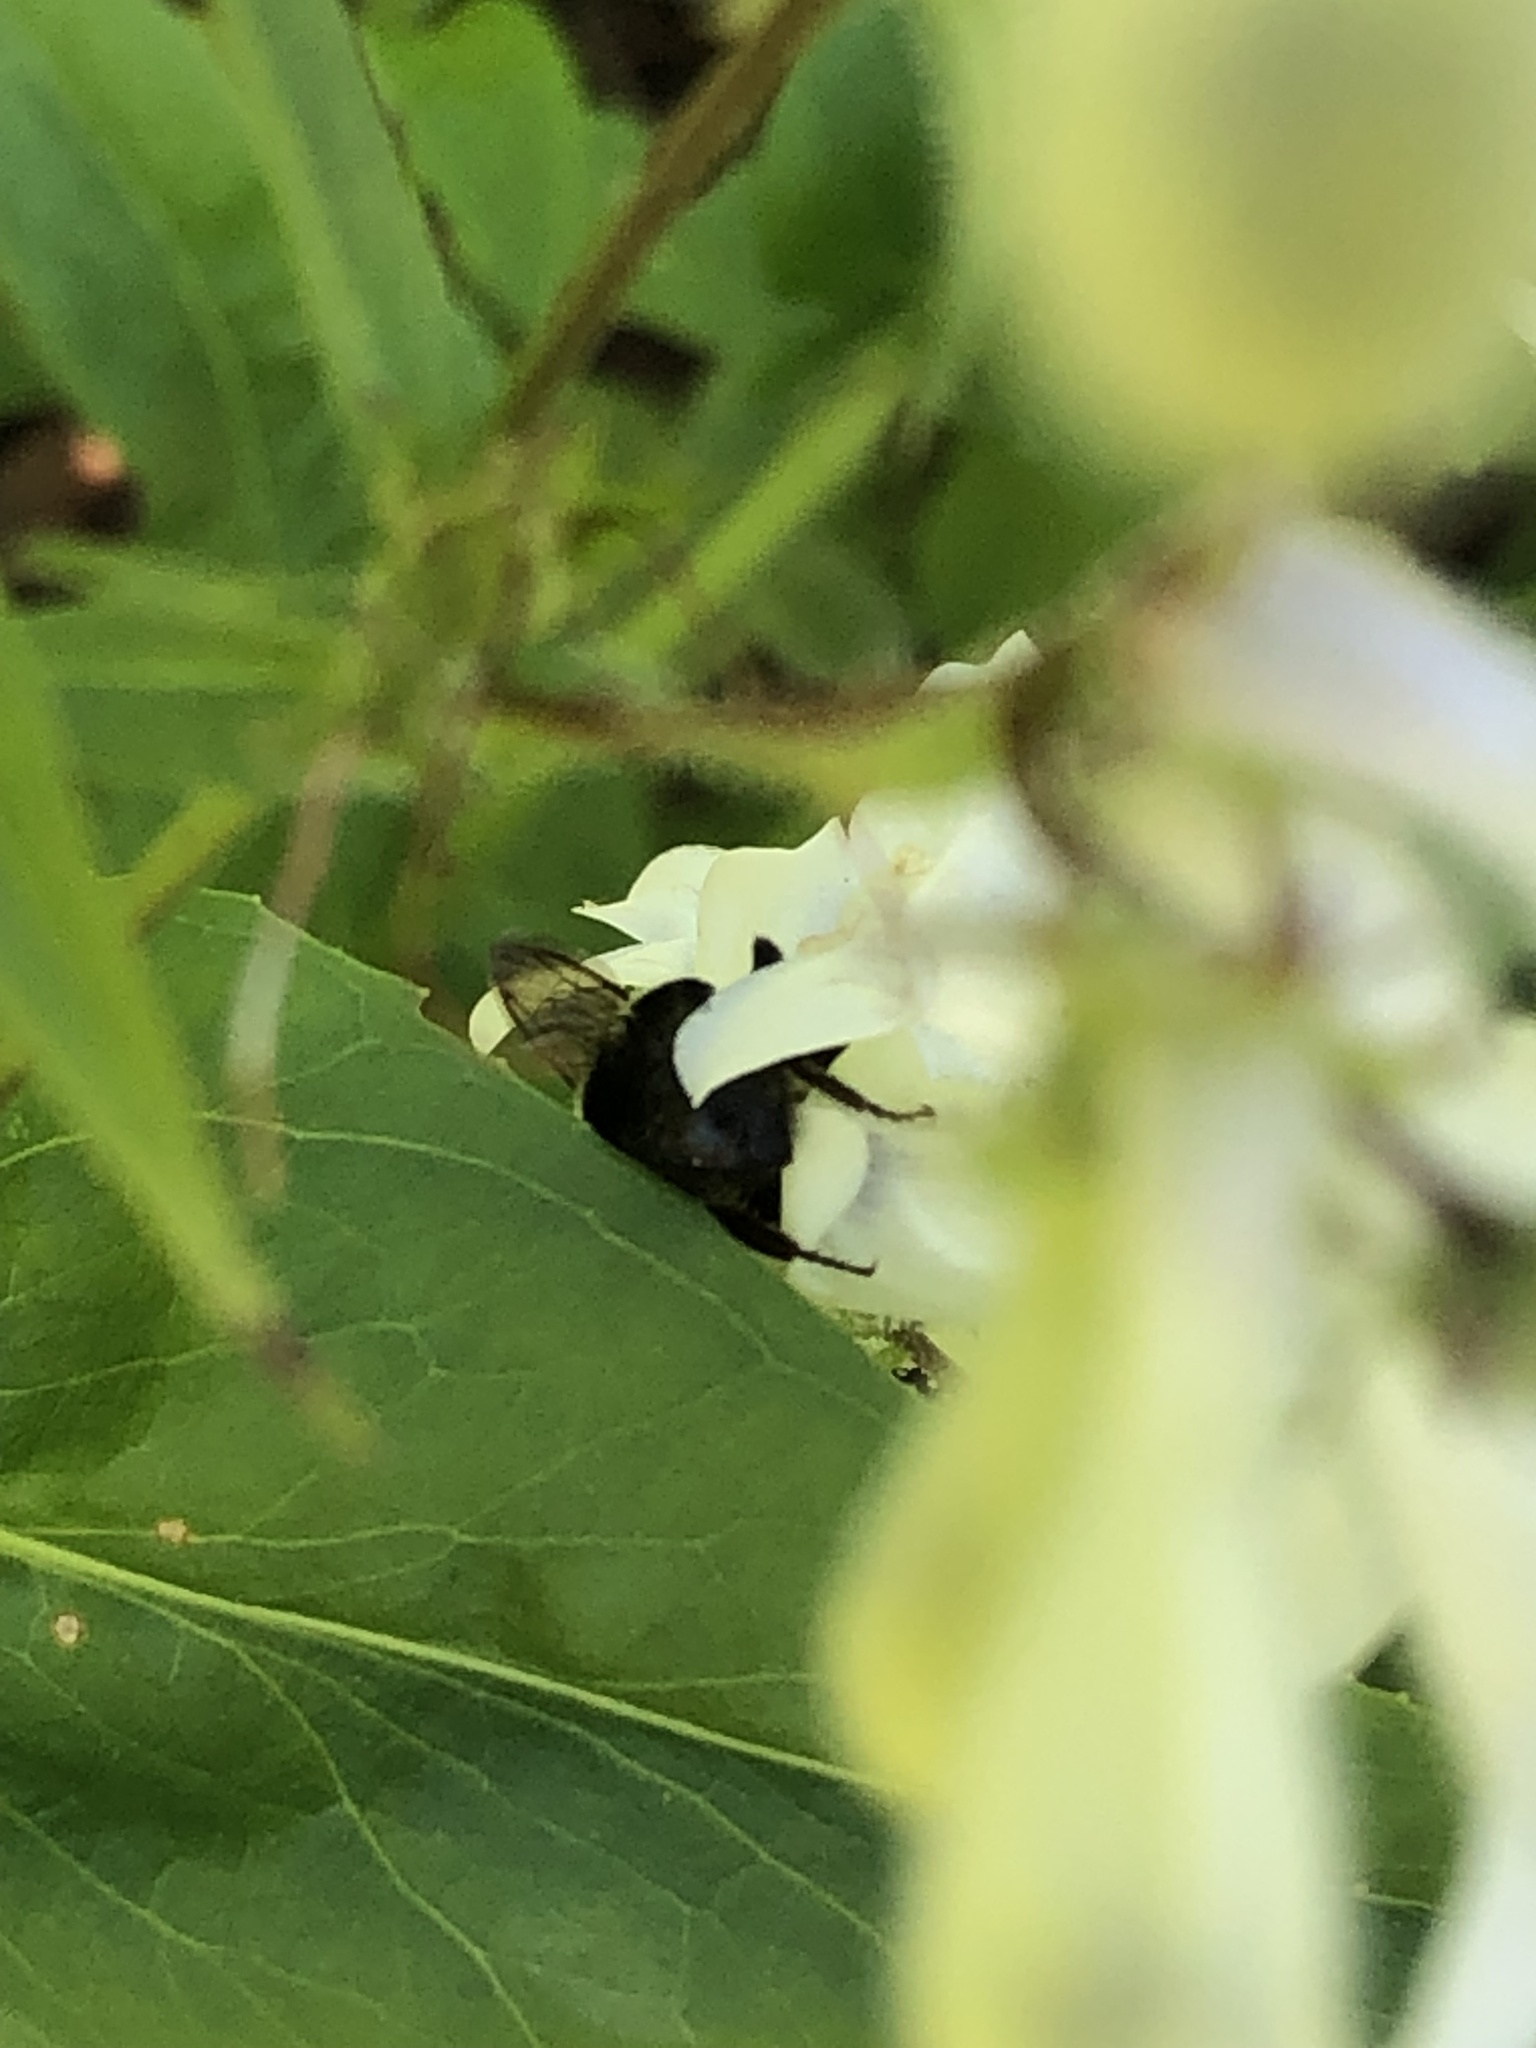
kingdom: Animalia
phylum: Arthropoda
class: Insecta
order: Hymenoptera
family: Apidae
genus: Bombus
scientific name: Bombus impatiens
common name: Common eastern bumble bee
